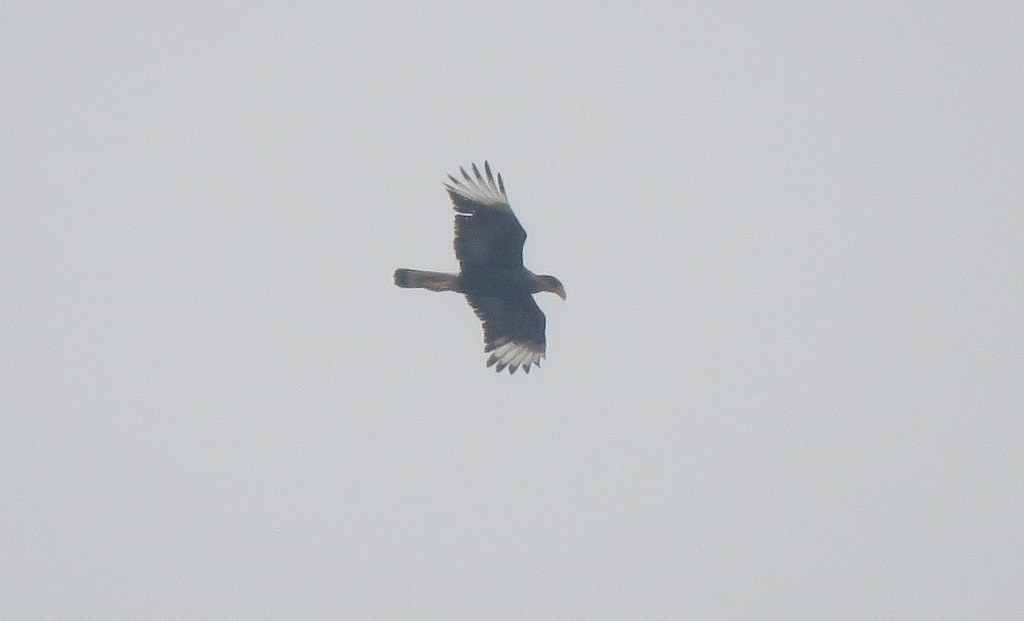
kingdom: Animalia
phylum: Chordata
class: Aves
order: Falconiformes
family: Falconidae
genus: Caracara
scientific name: Caracara plancus
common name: Southern caracara
